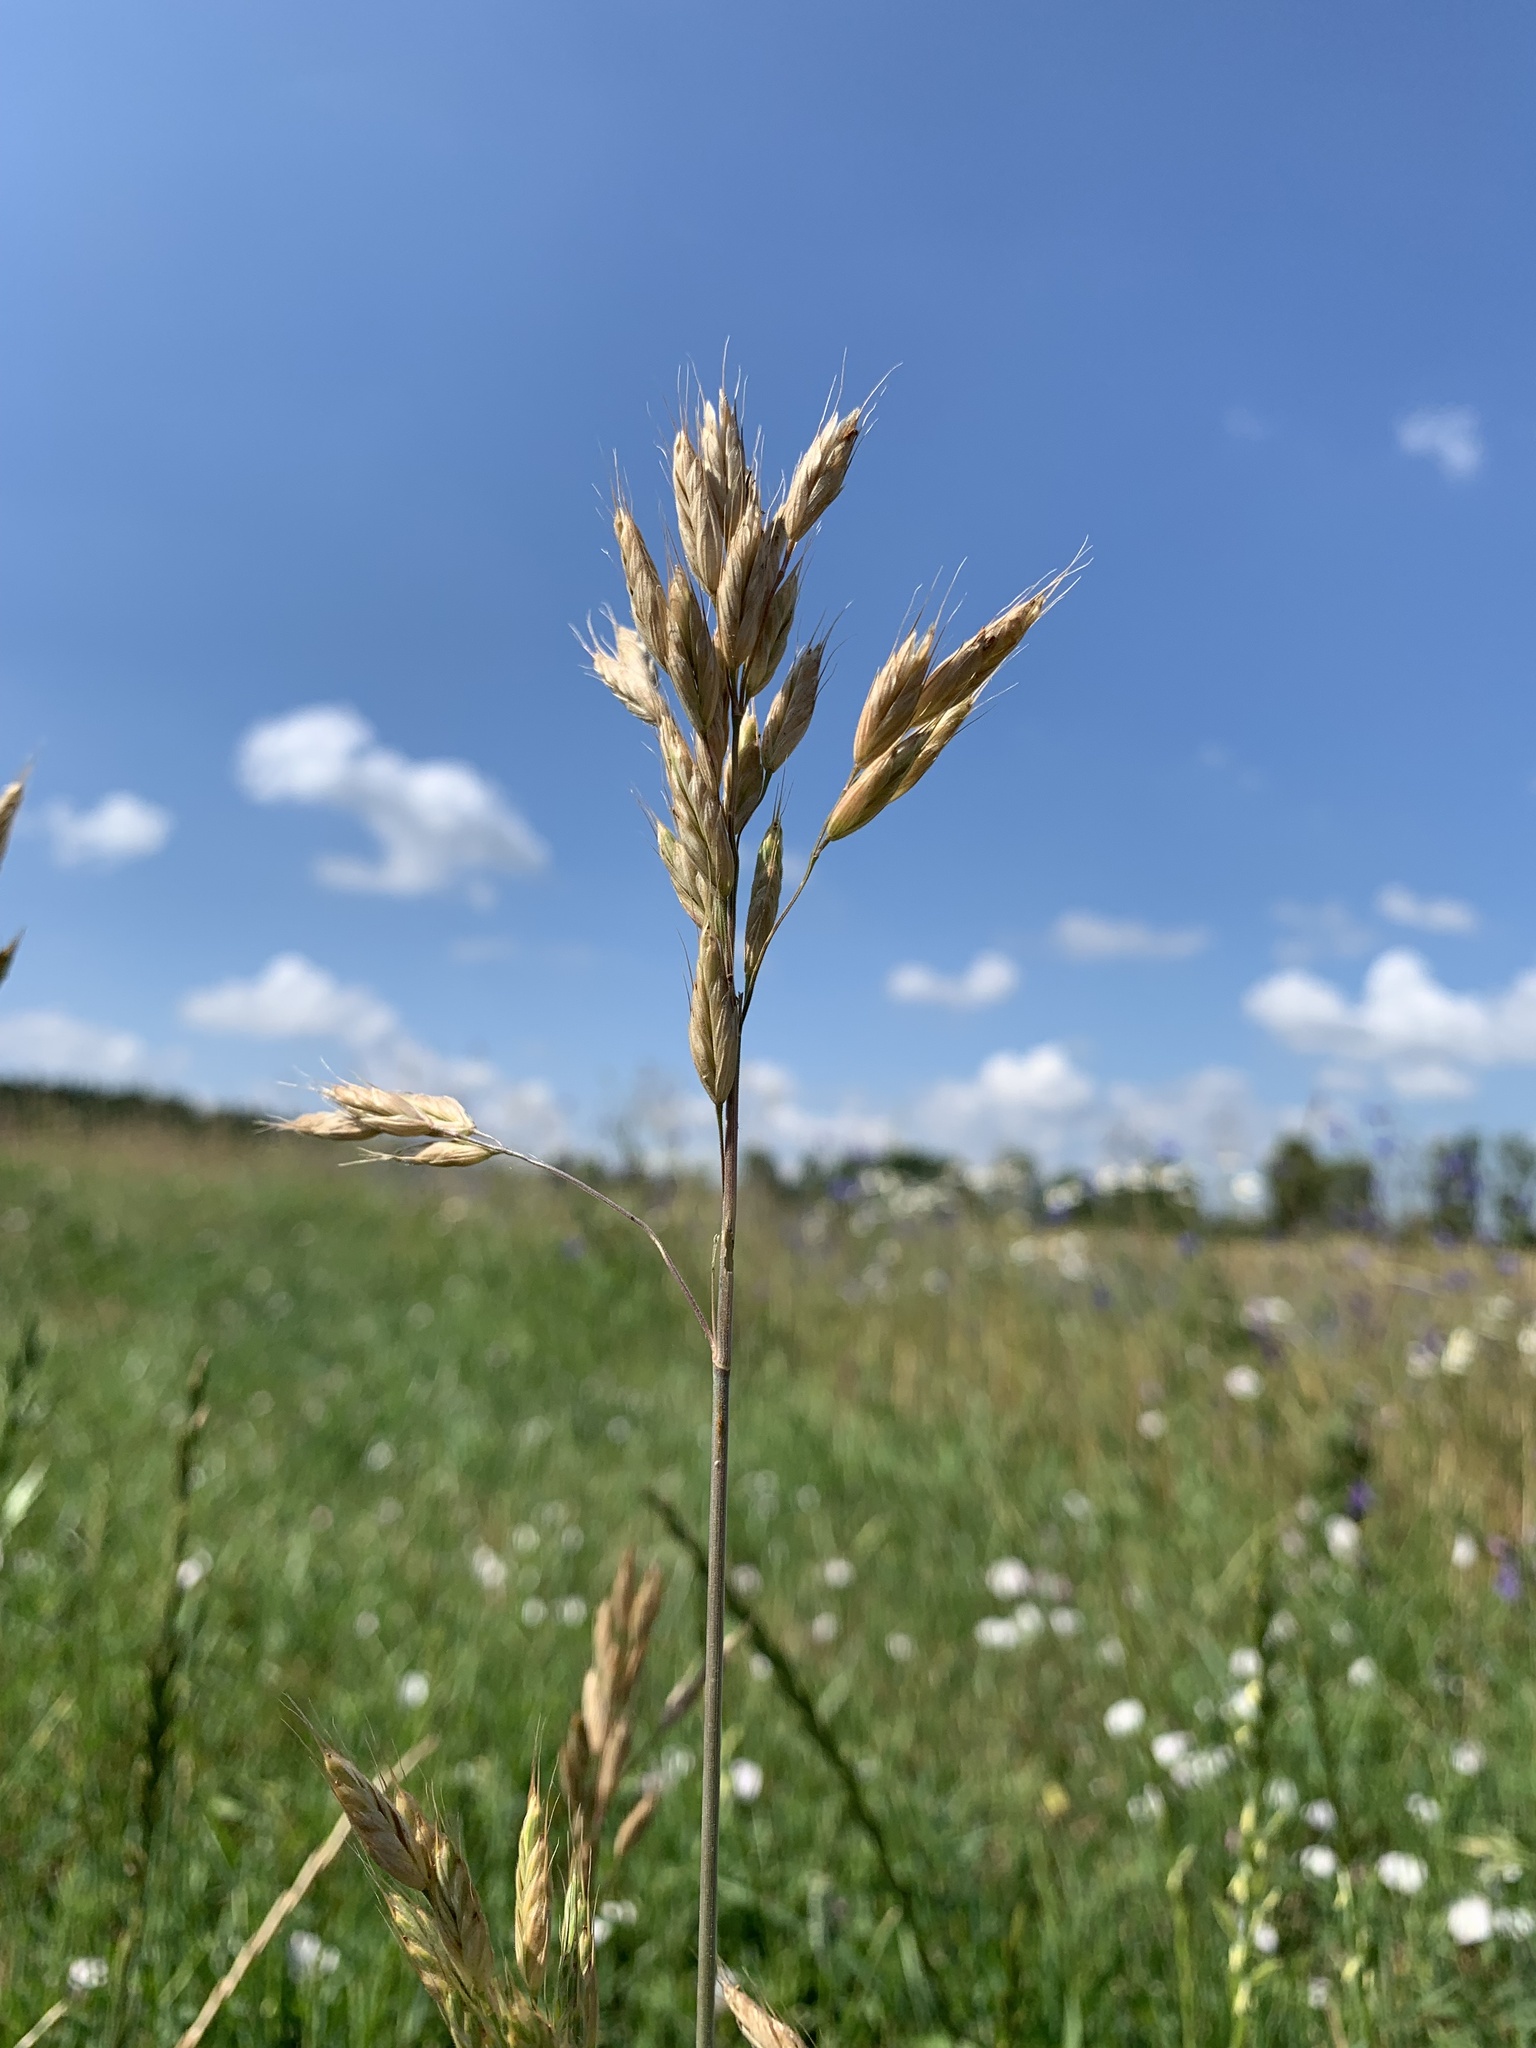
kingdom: Plantae
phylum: Tracheophyta
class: Liliopsida
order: Poales
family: Poaceae
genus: Bromus
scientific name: Bromus hordeaceus
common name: Soft brome
